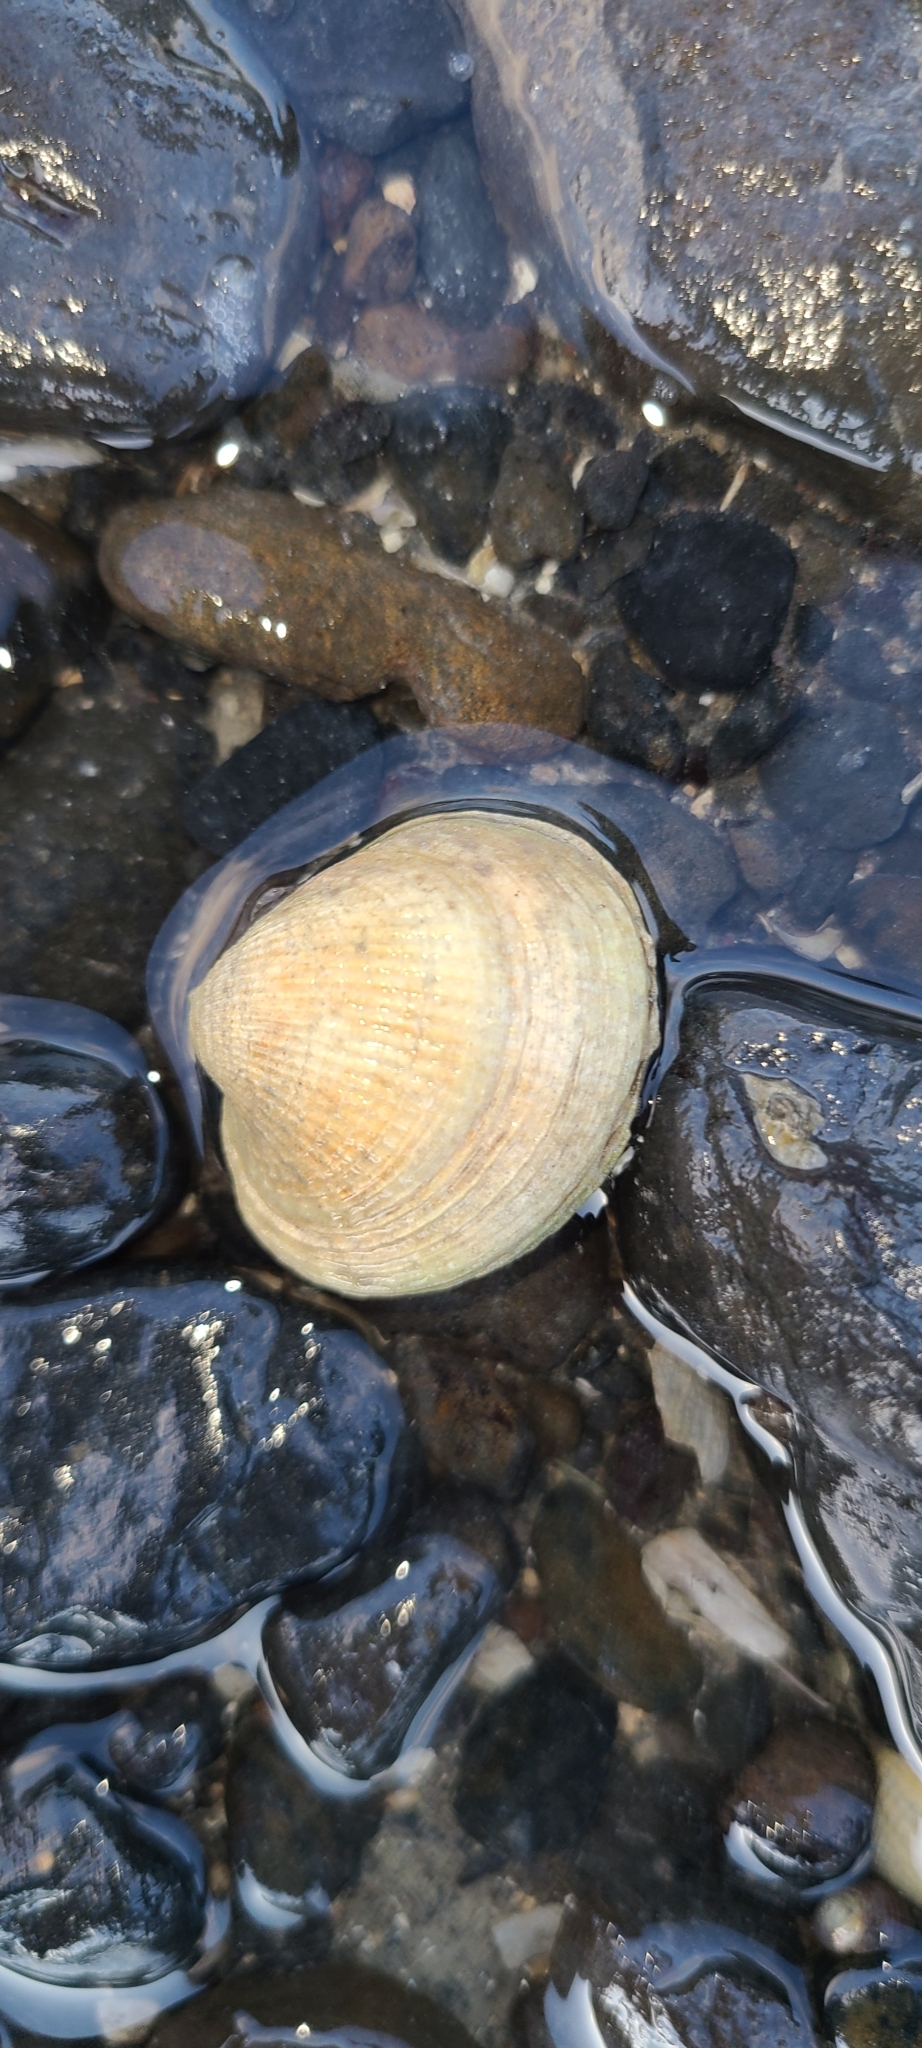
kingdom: Animalia
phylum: Mollusca
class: Bivalvia
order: Venerida
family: Veneridae
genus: Austrovenus
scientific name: Austrovenus stutchburyi
